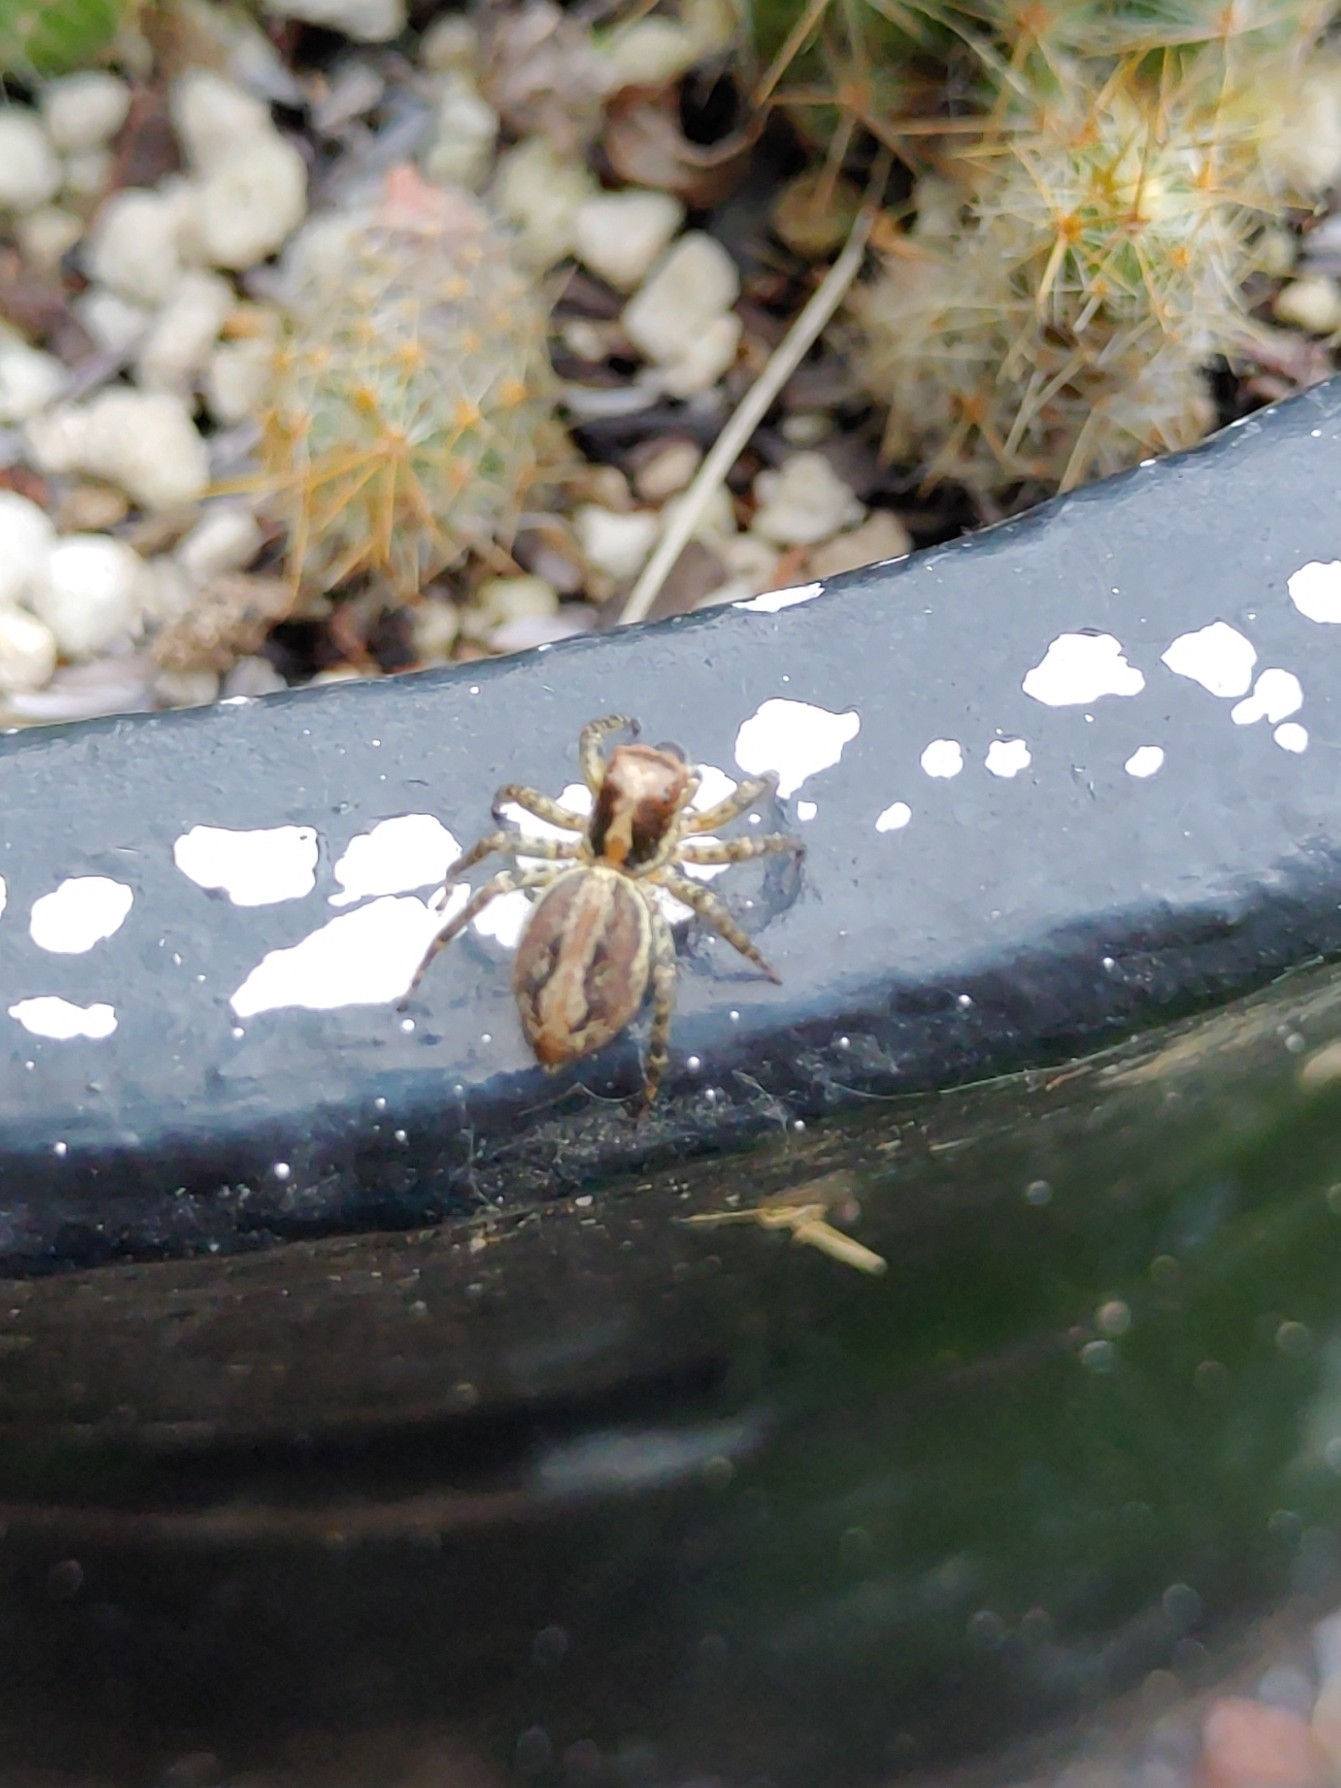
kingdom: Animalia
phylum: Arthropoda
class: Arachnida
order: Araneae
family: Salticidae
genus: Asaphobelis
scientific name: Asaphobelis physonychus
